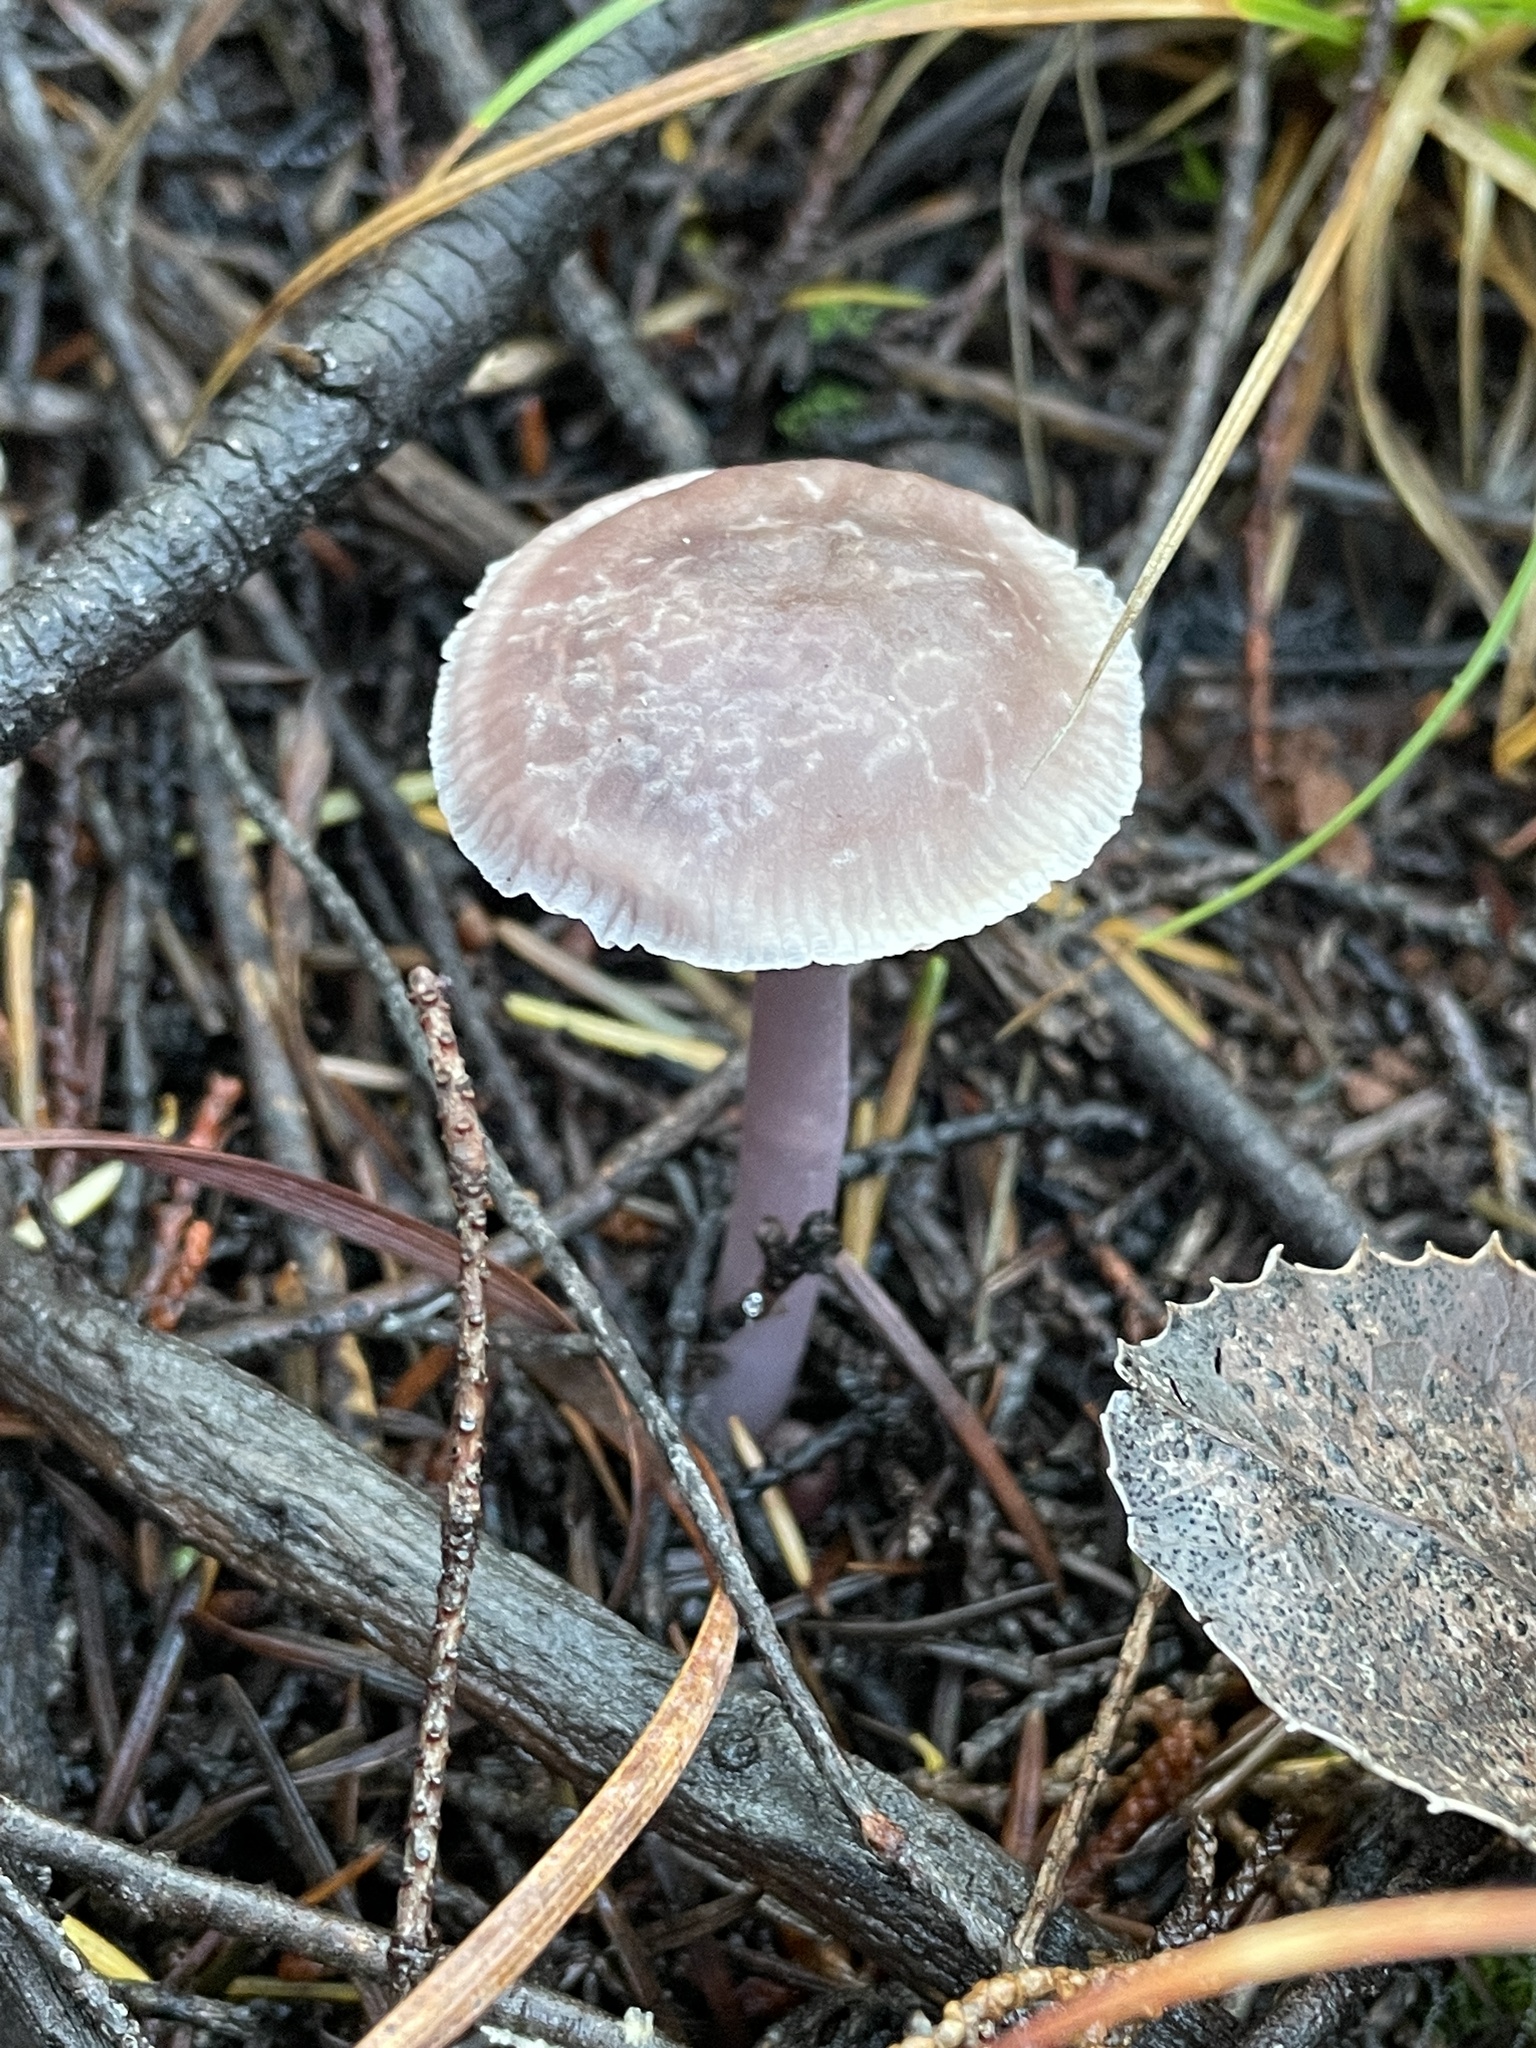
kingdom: Fungi
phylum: Basidiomycota
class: Agaricomycetes
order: Agaricales
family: Mycenaceae
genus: Mycena
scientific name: Mycena pura
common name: Lilac bonnet
